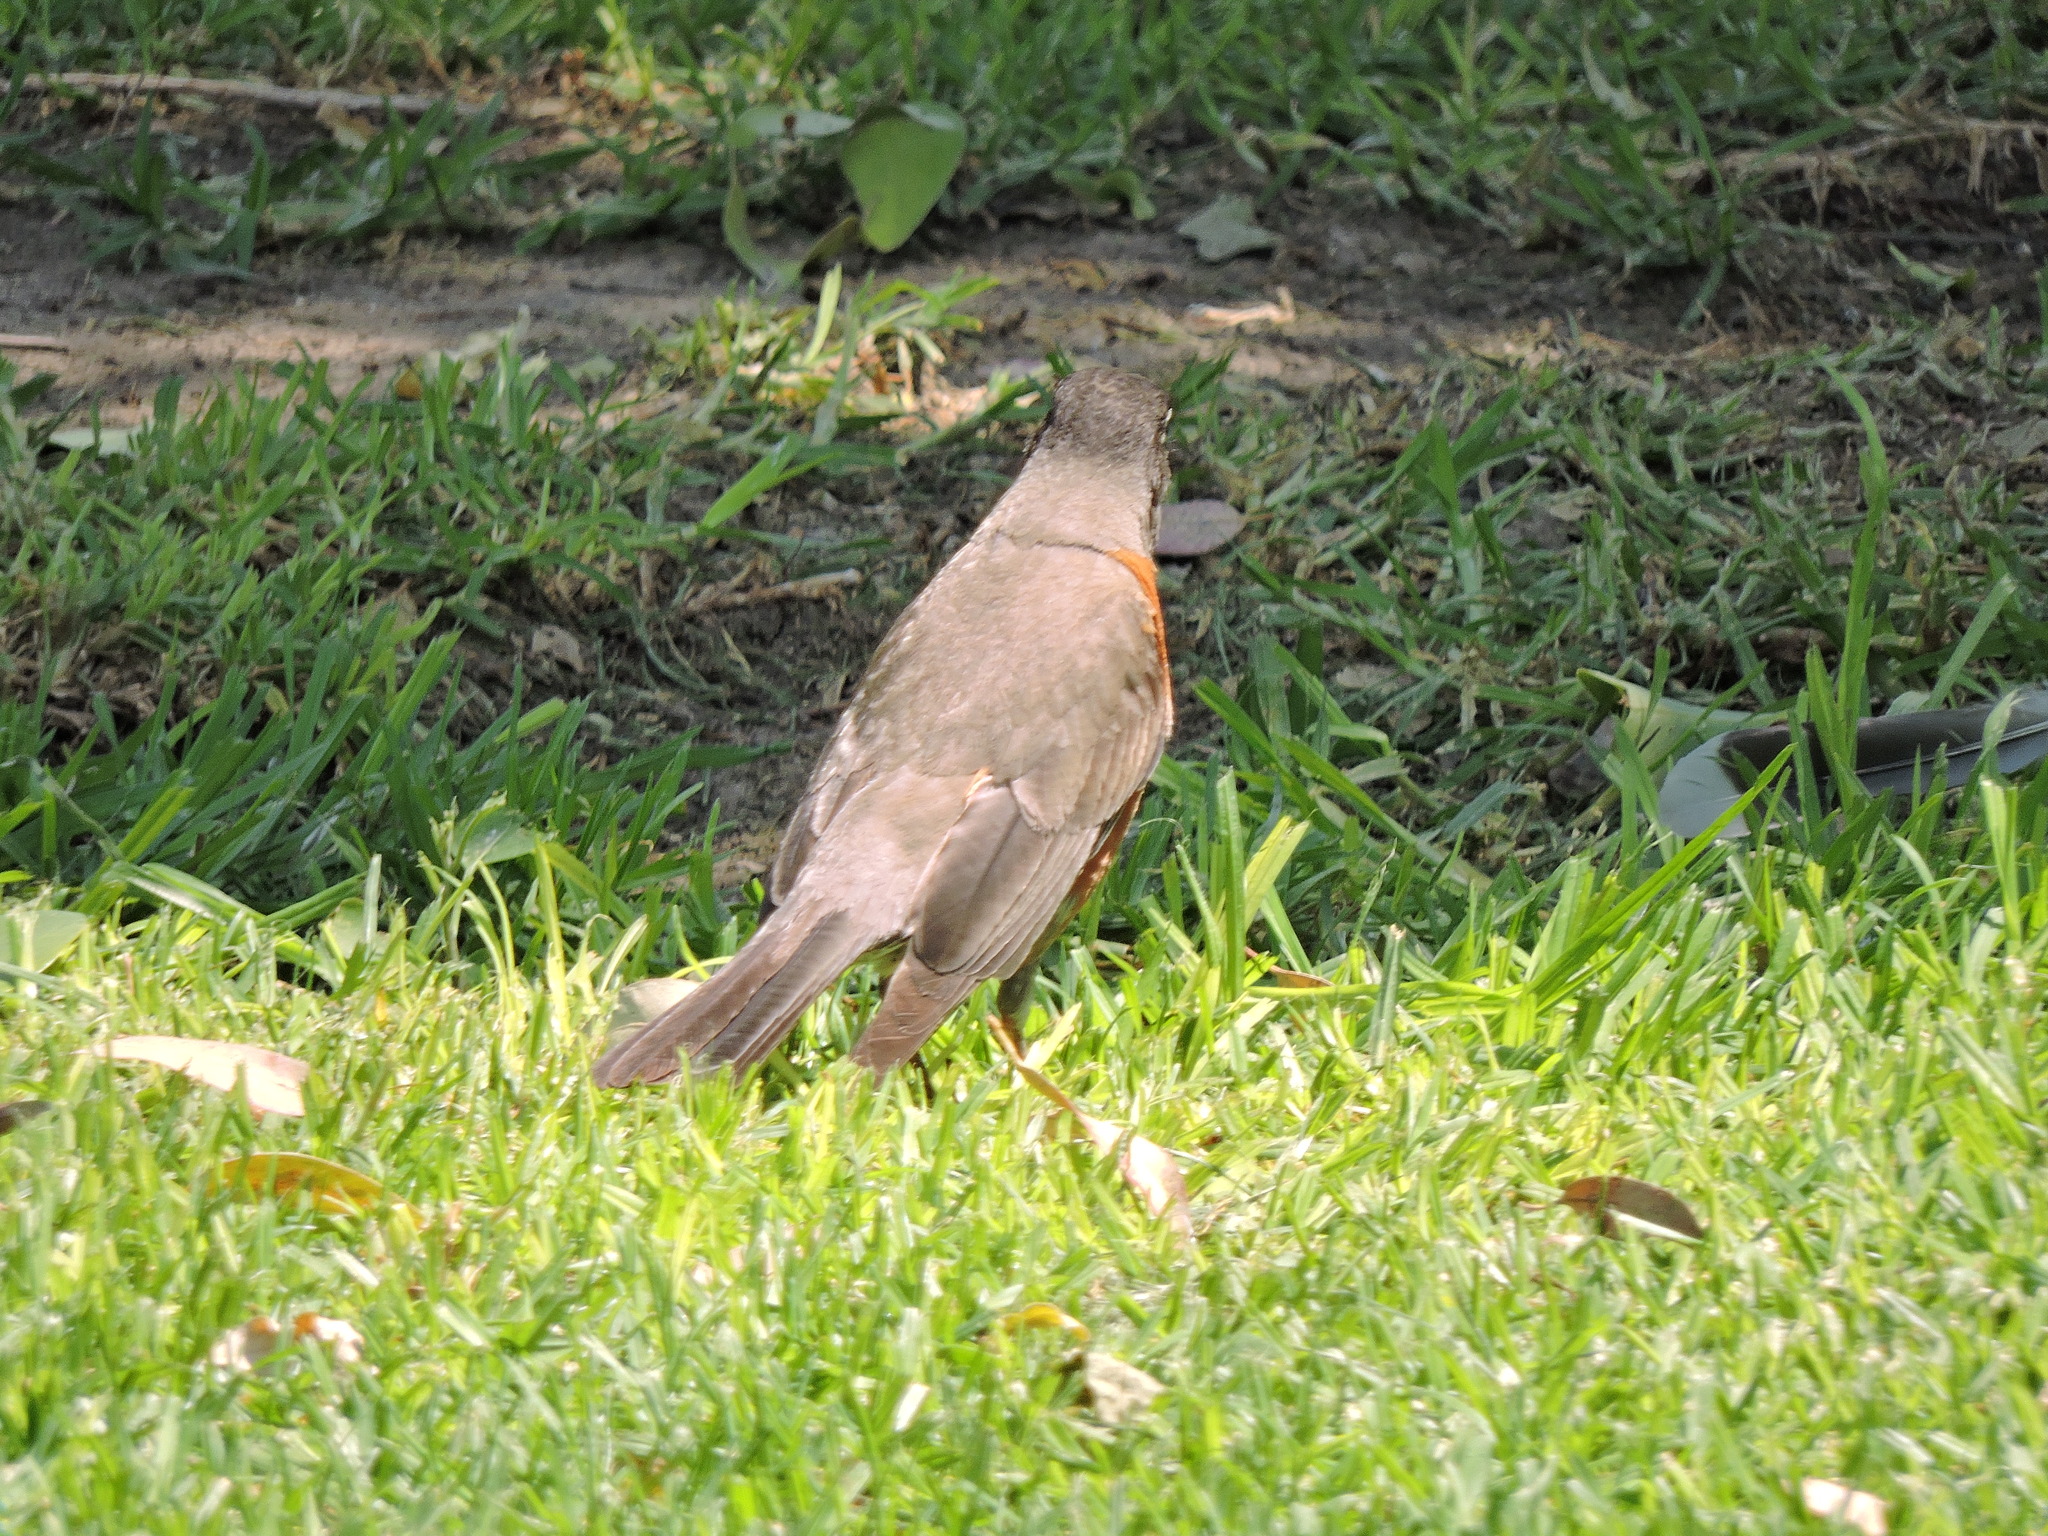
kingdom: Animalia
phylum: Chordata
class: Aves
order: Passeriformes
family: Turdidae
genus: Turdus
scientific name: Turdus migratorius
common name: American robin
